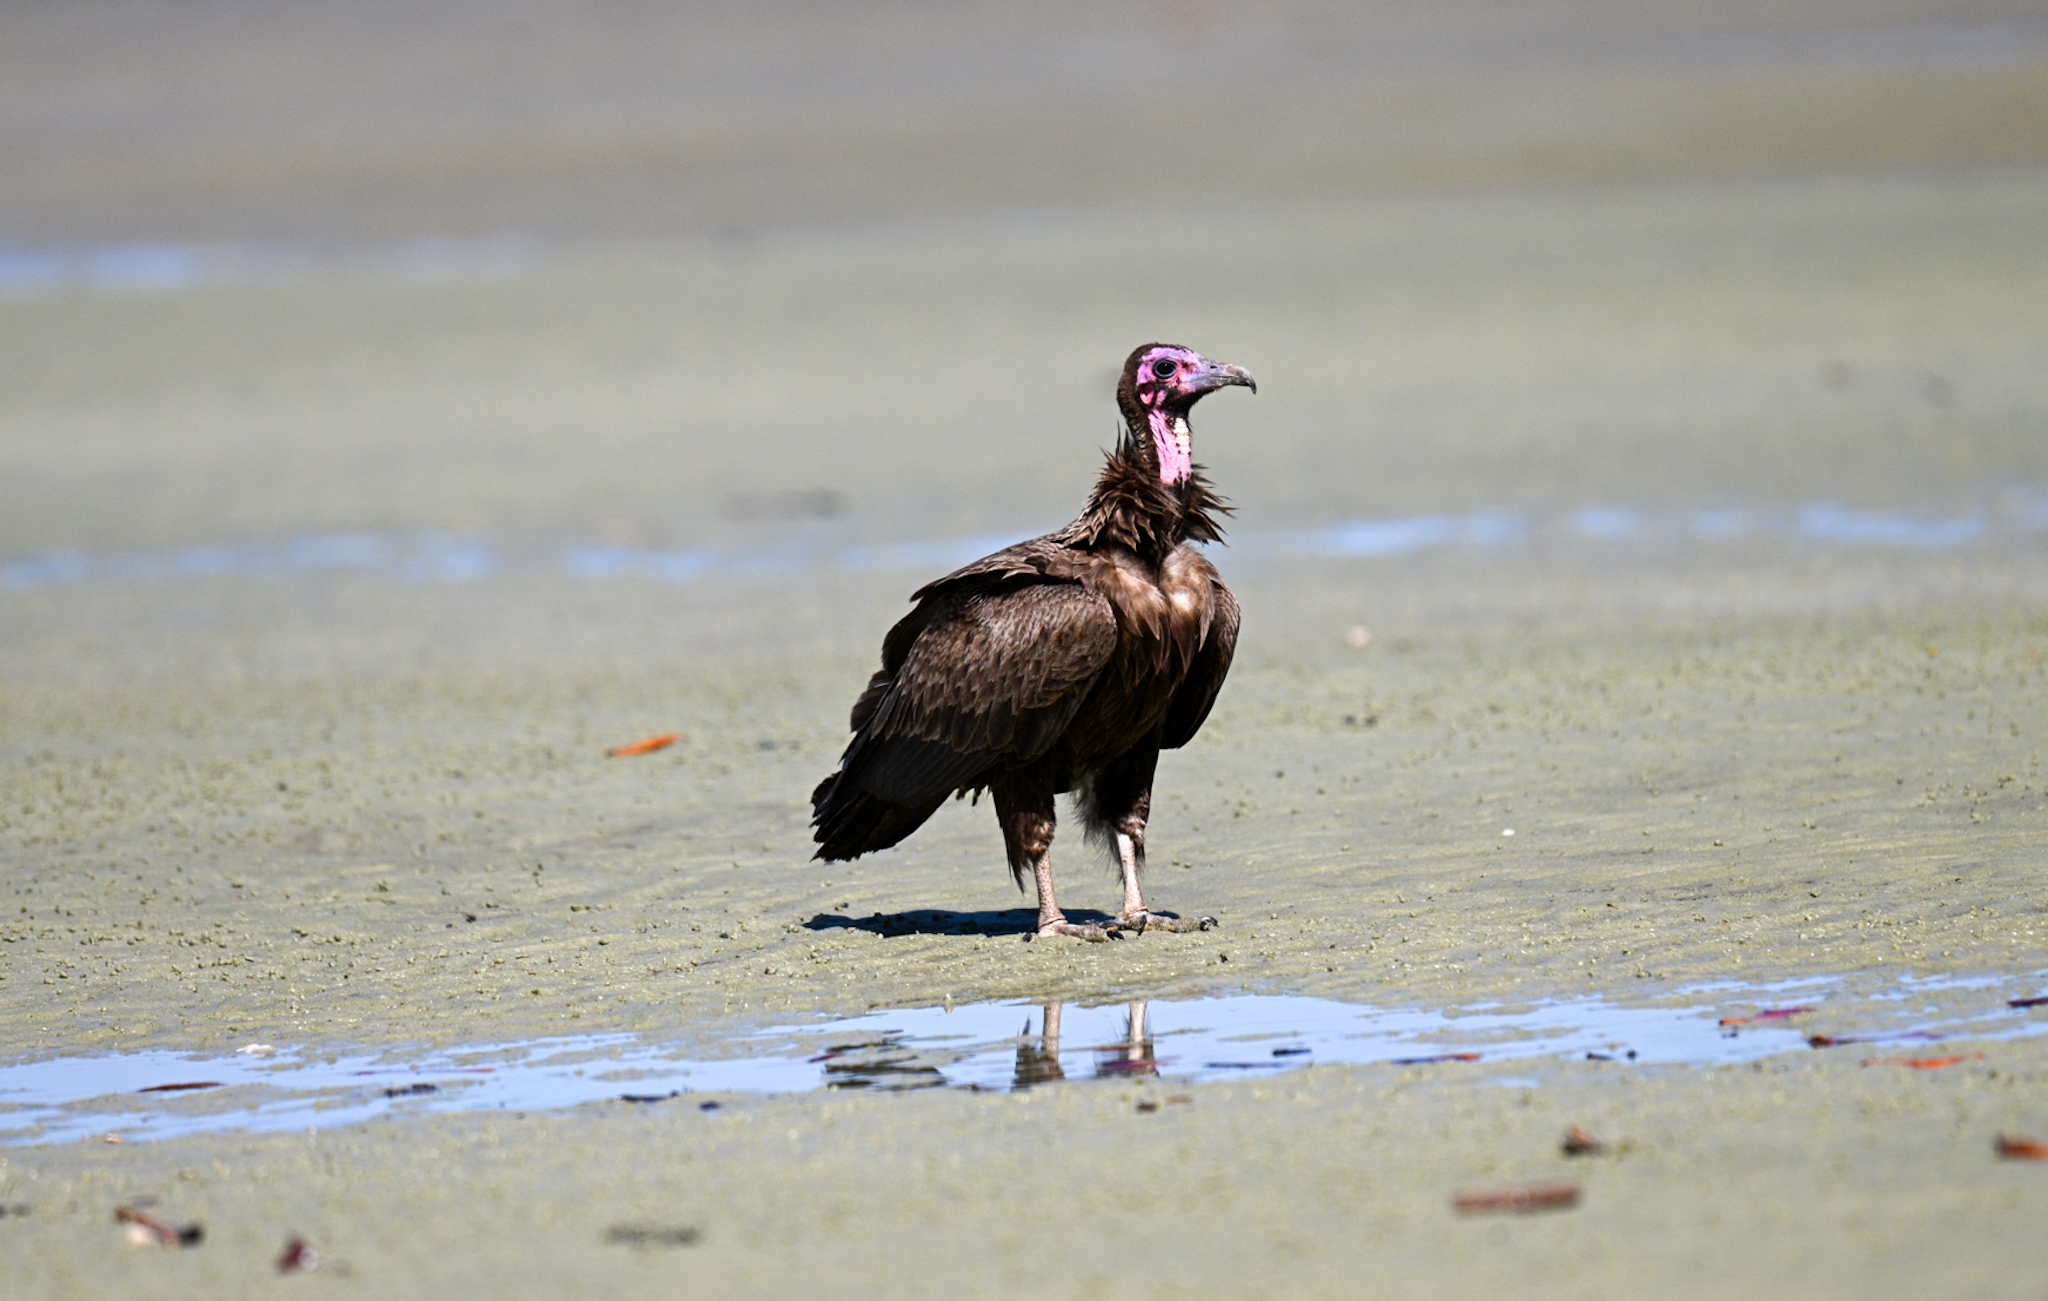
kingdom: Animalia
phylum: Chordata
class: Aves
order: Accipitriformes
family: Accipitridae
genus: Necrosyrtes
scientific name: Necrosyrtes monachus
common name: Hooded vulture
